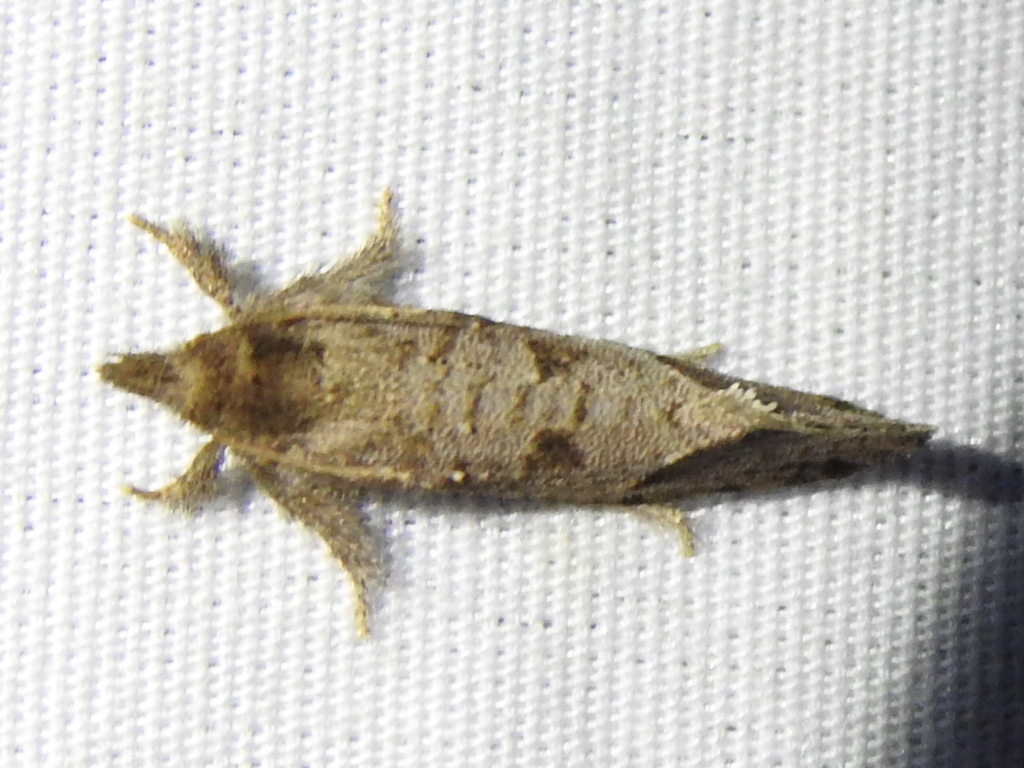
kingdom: Animalia
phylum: Arthropoda
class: Insecta
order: Lepidoptera
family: Tineidae
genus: Acrolophus
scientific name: Acrolophus texanella
